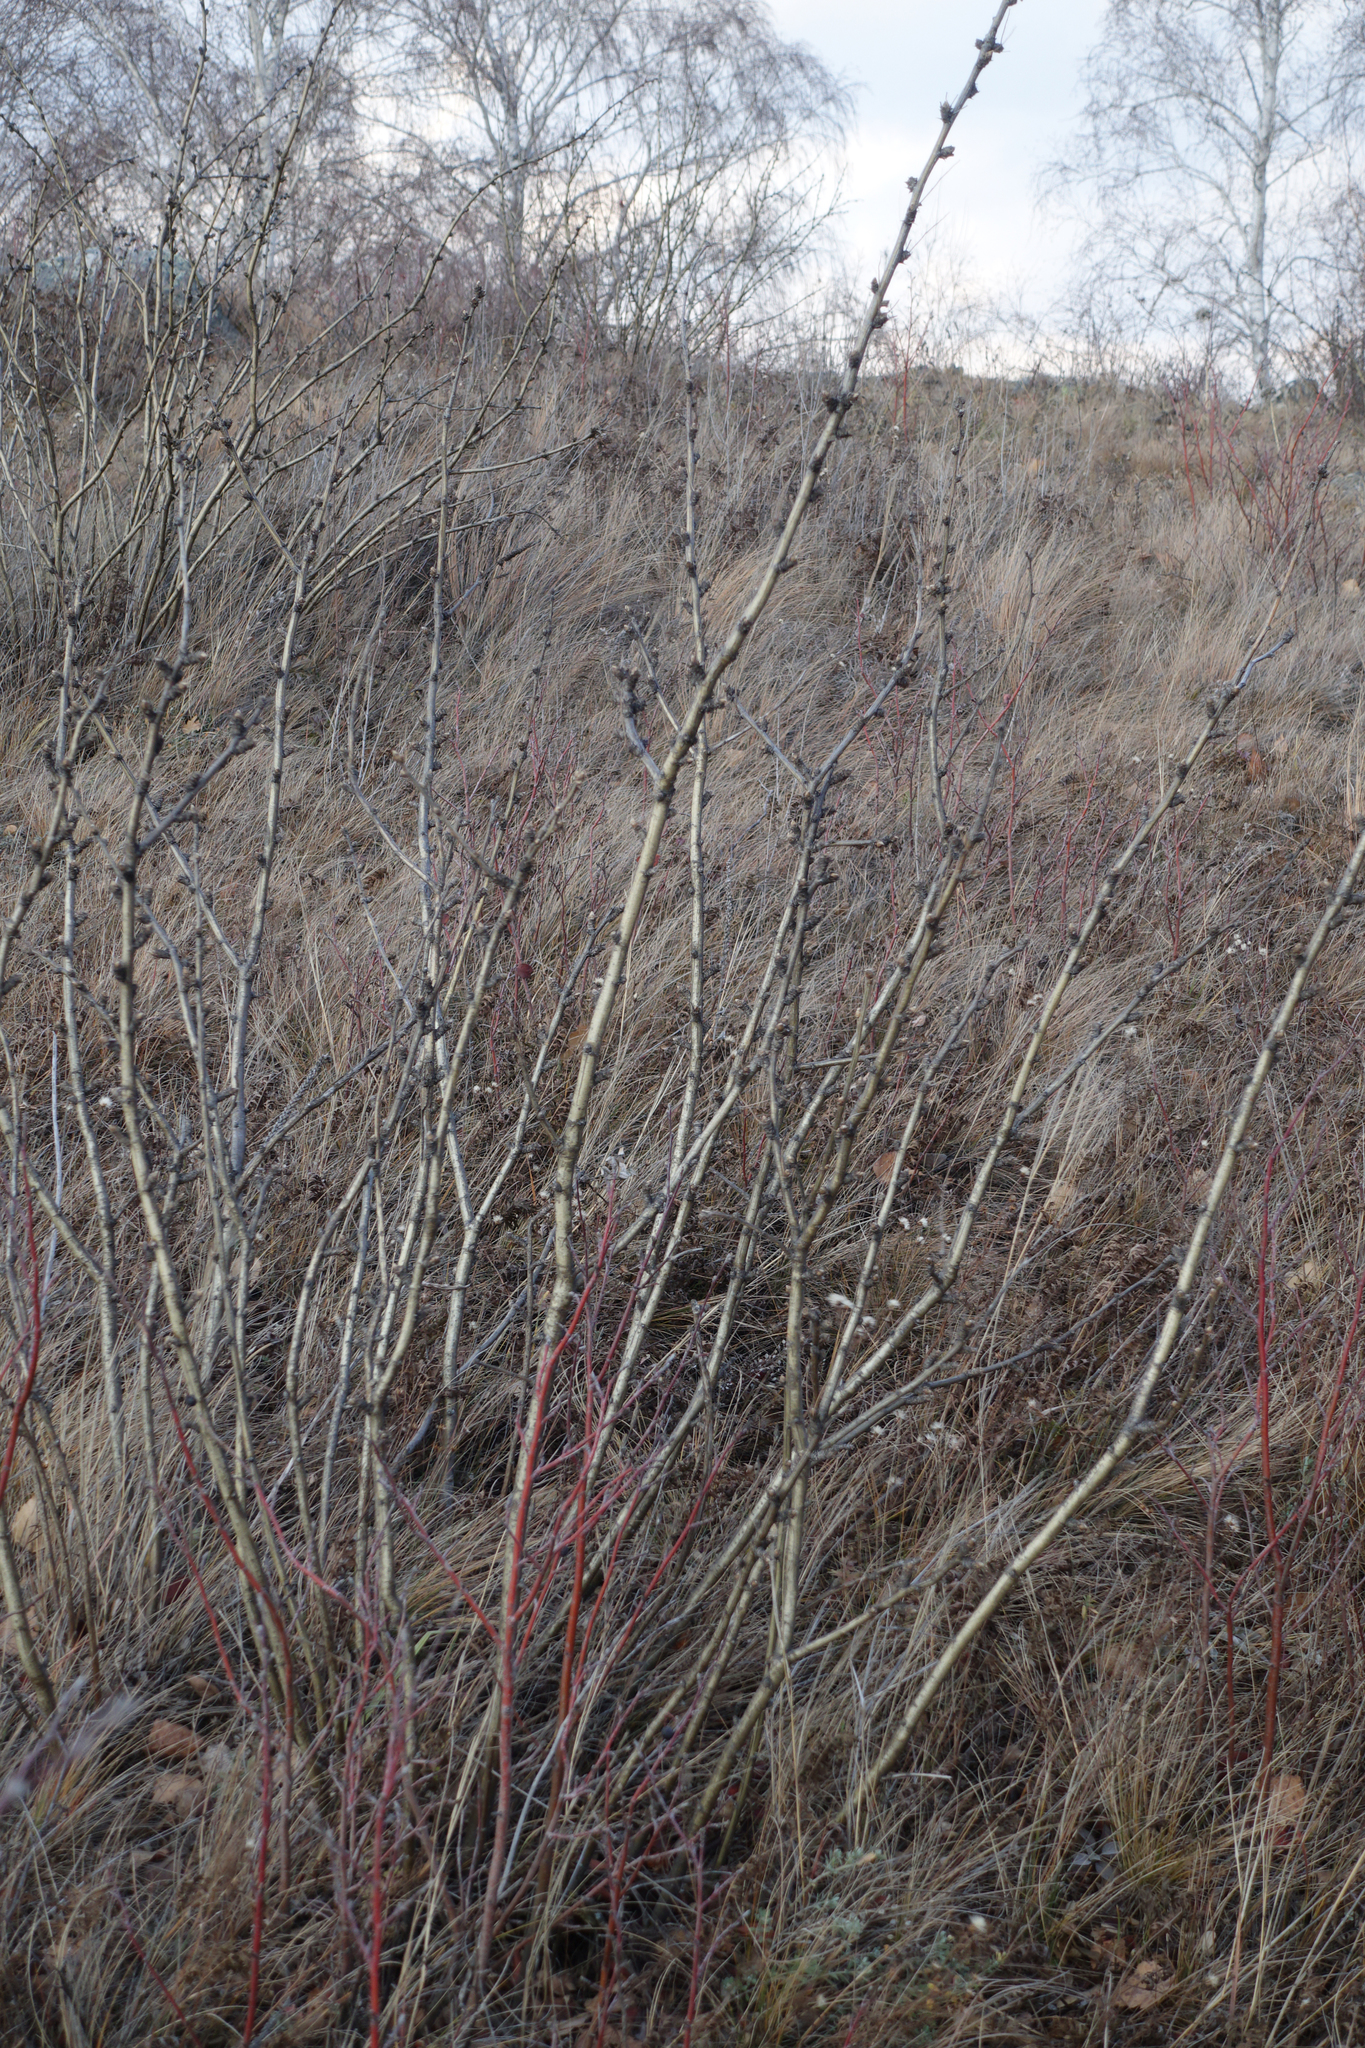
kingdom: Plantae
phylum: Tracheophyta
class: Magnoliopsida
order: Fabales
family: Fabaceae
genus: Caragana
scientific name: Caragana arborescens
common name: Siberian peashrub
